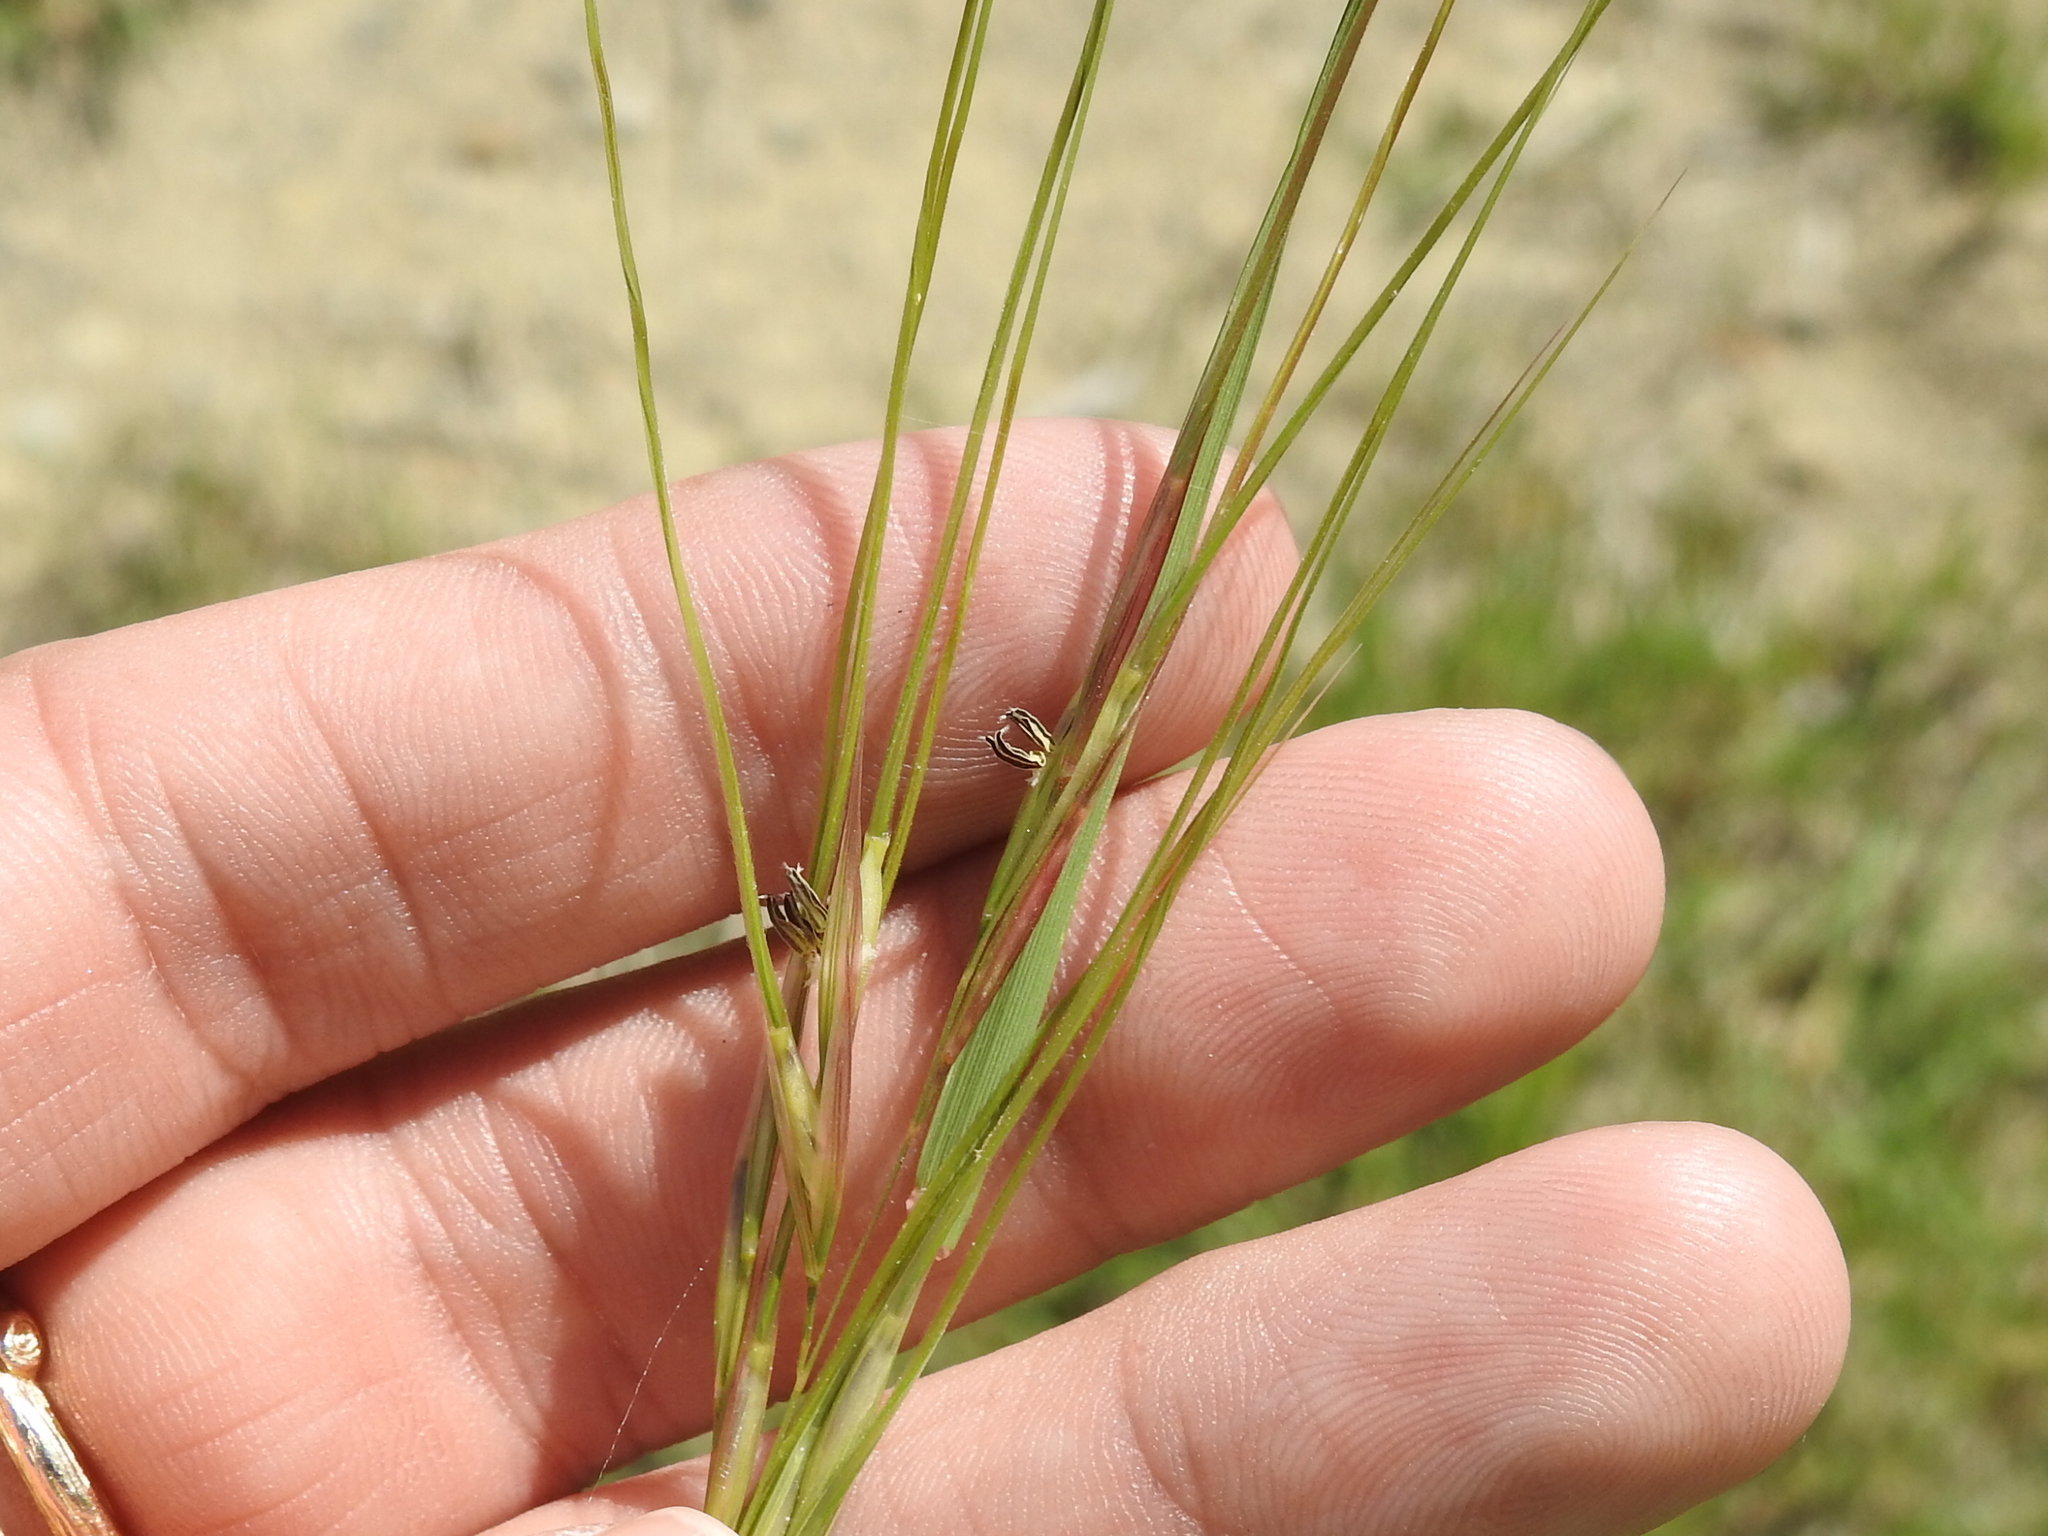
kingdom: Plantae
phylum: Tracheophyta
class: Liliopsida
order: Poales
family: Poaceae
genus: Nassella
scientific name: Nassella leucotricha
